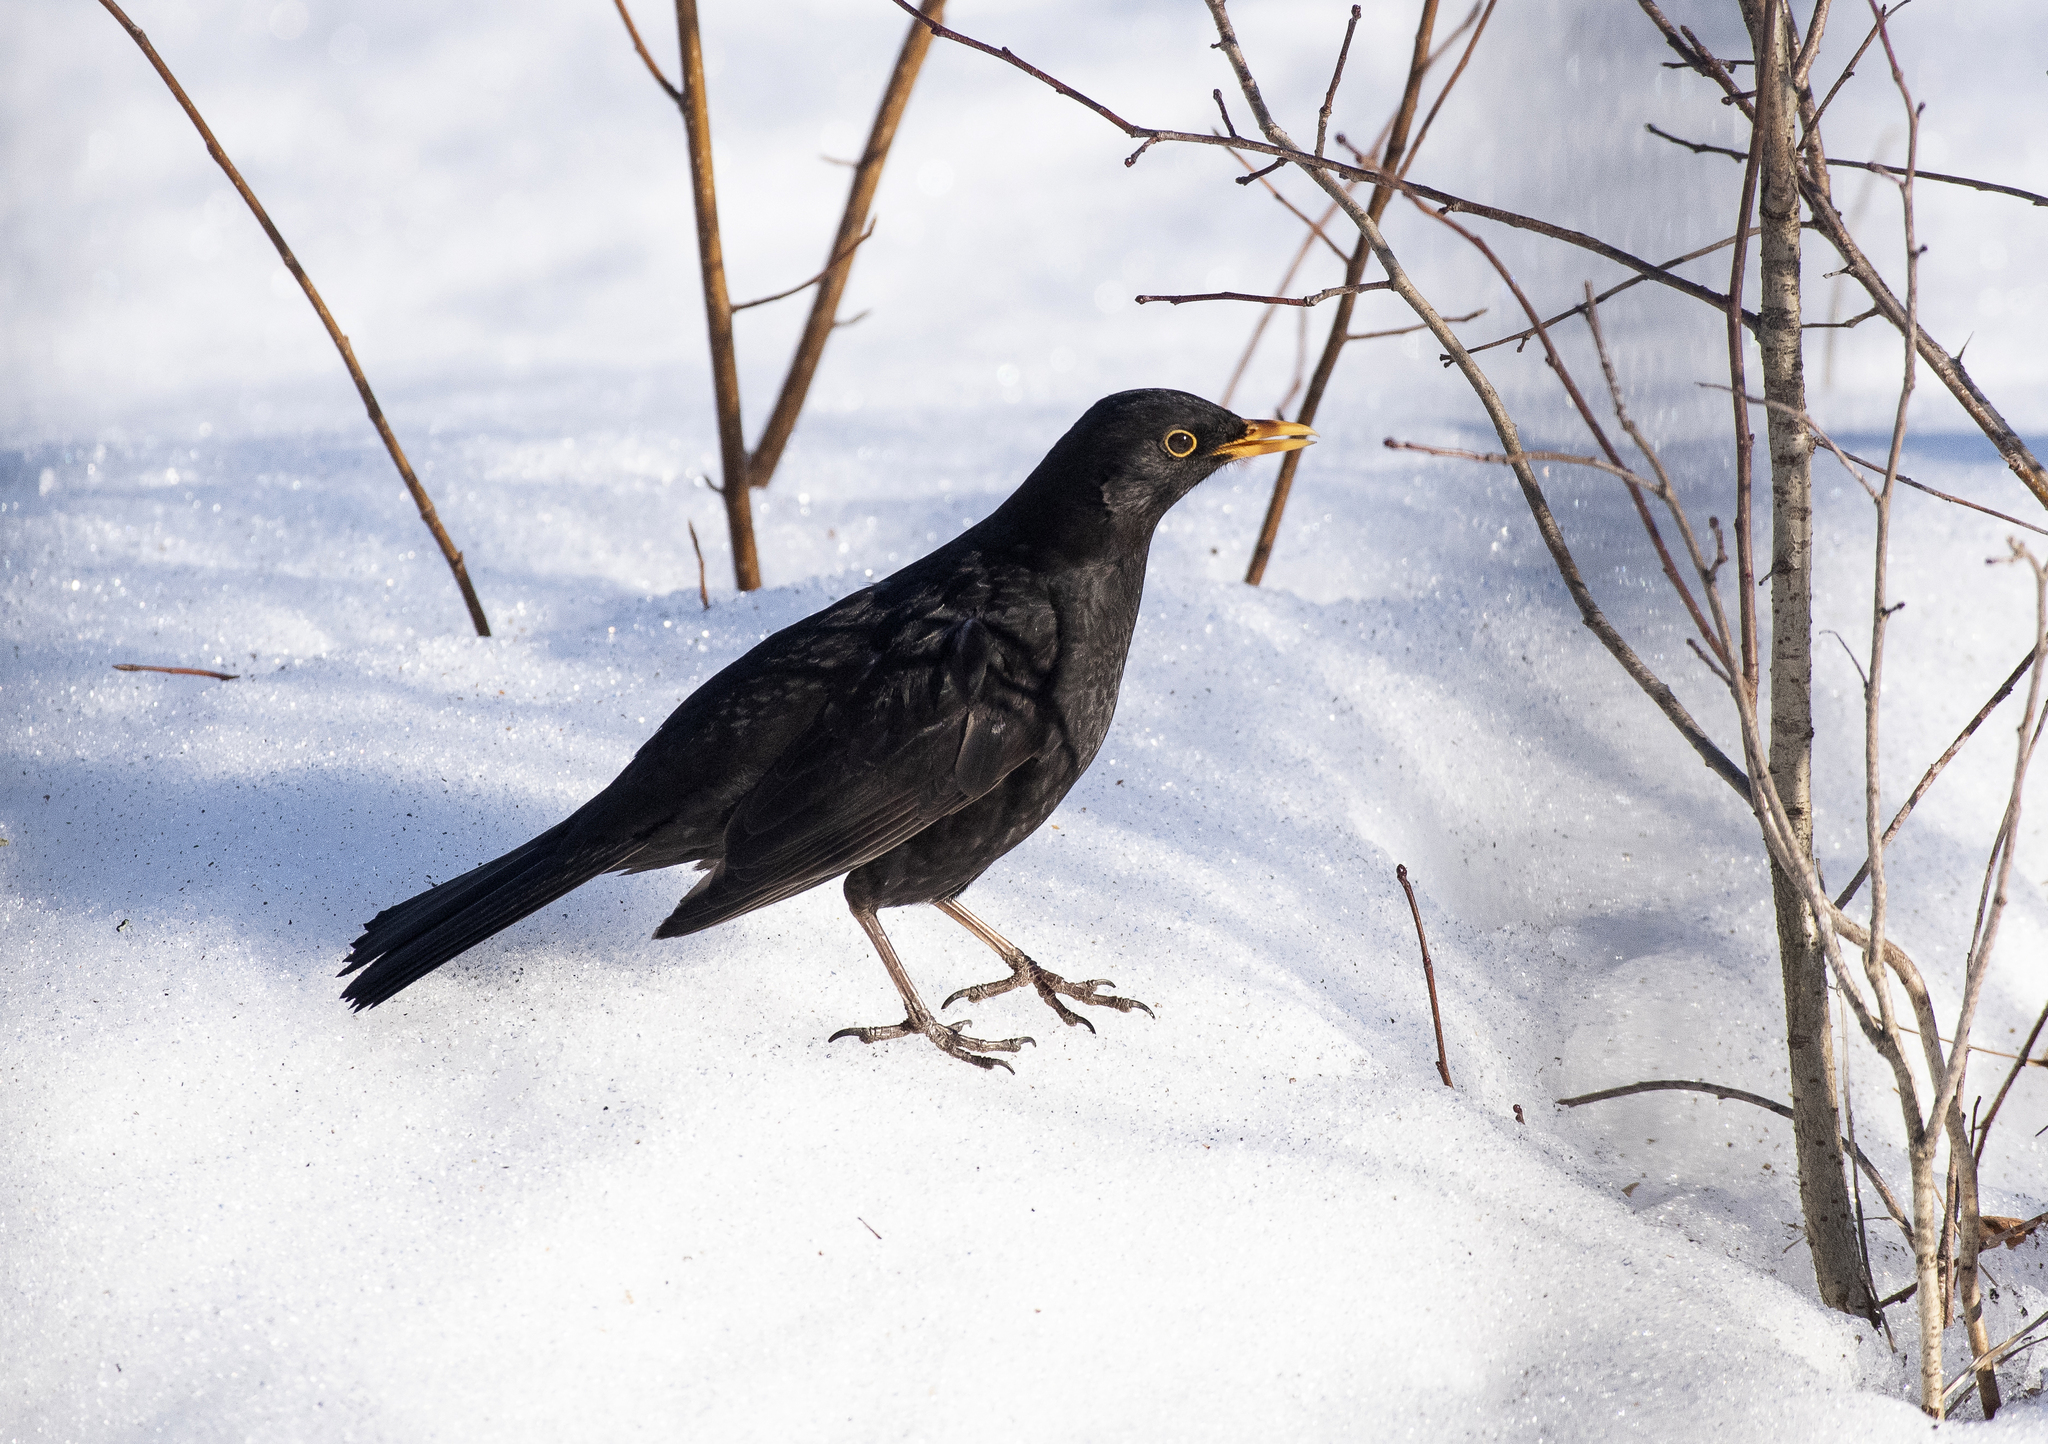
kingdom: Animalia
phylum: Chordata
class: Aves
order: Passeriformes
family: Turdidae
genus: Turdus
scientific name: Turdus merula
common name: Common blackbird
